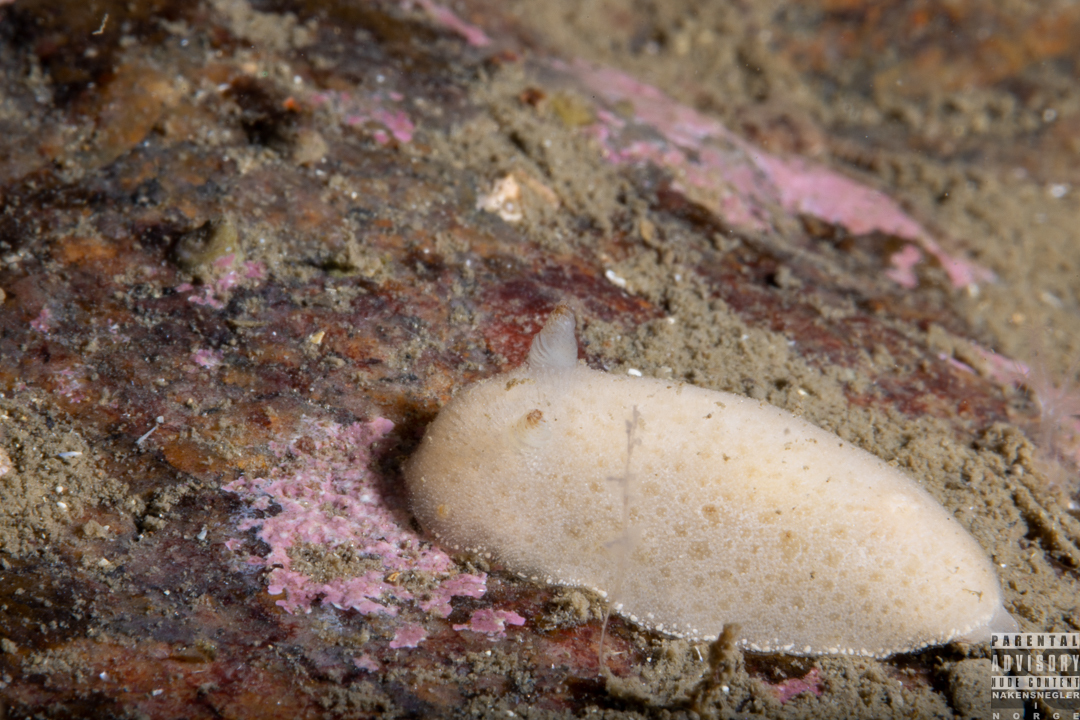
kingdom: Animalia
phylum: Mollusca
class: Gastropoda
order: Nudibranchia
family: Discodorididae
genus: Jorunna
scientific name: Jorunna tomentosa
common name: Grey sea slug
